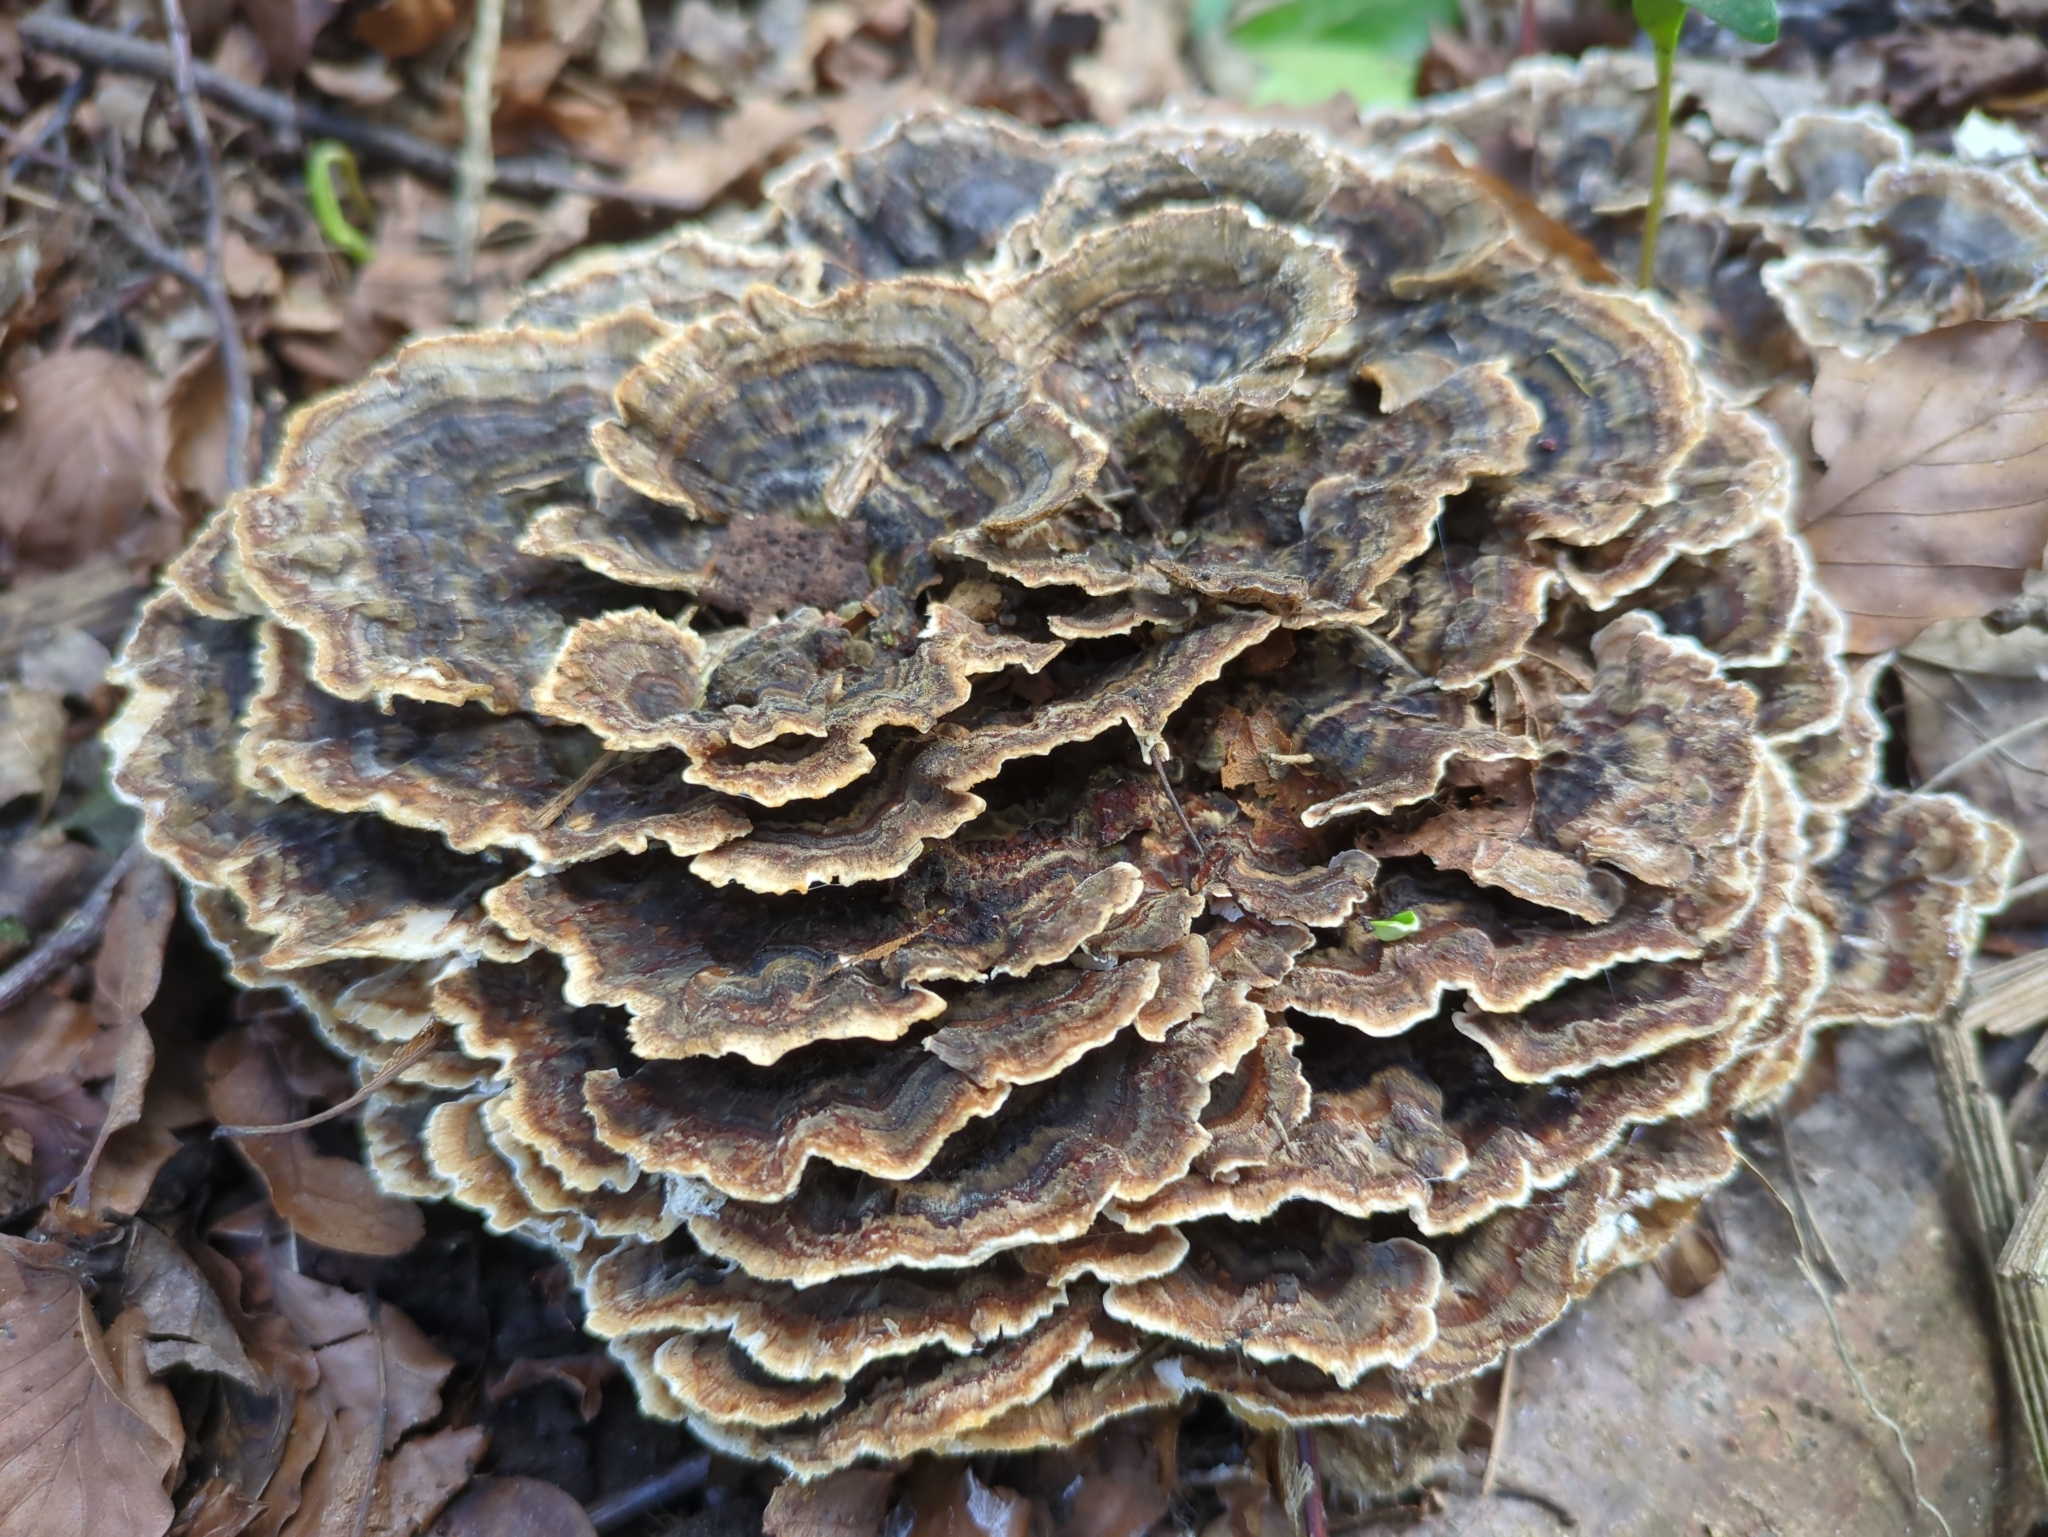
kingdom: Fungi
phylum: Basidiomycota
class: Agaricomycetes
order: Polyporales
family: Polyporaceae
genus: Trametes
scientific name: Trametes versicolor
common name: Turkeytail
